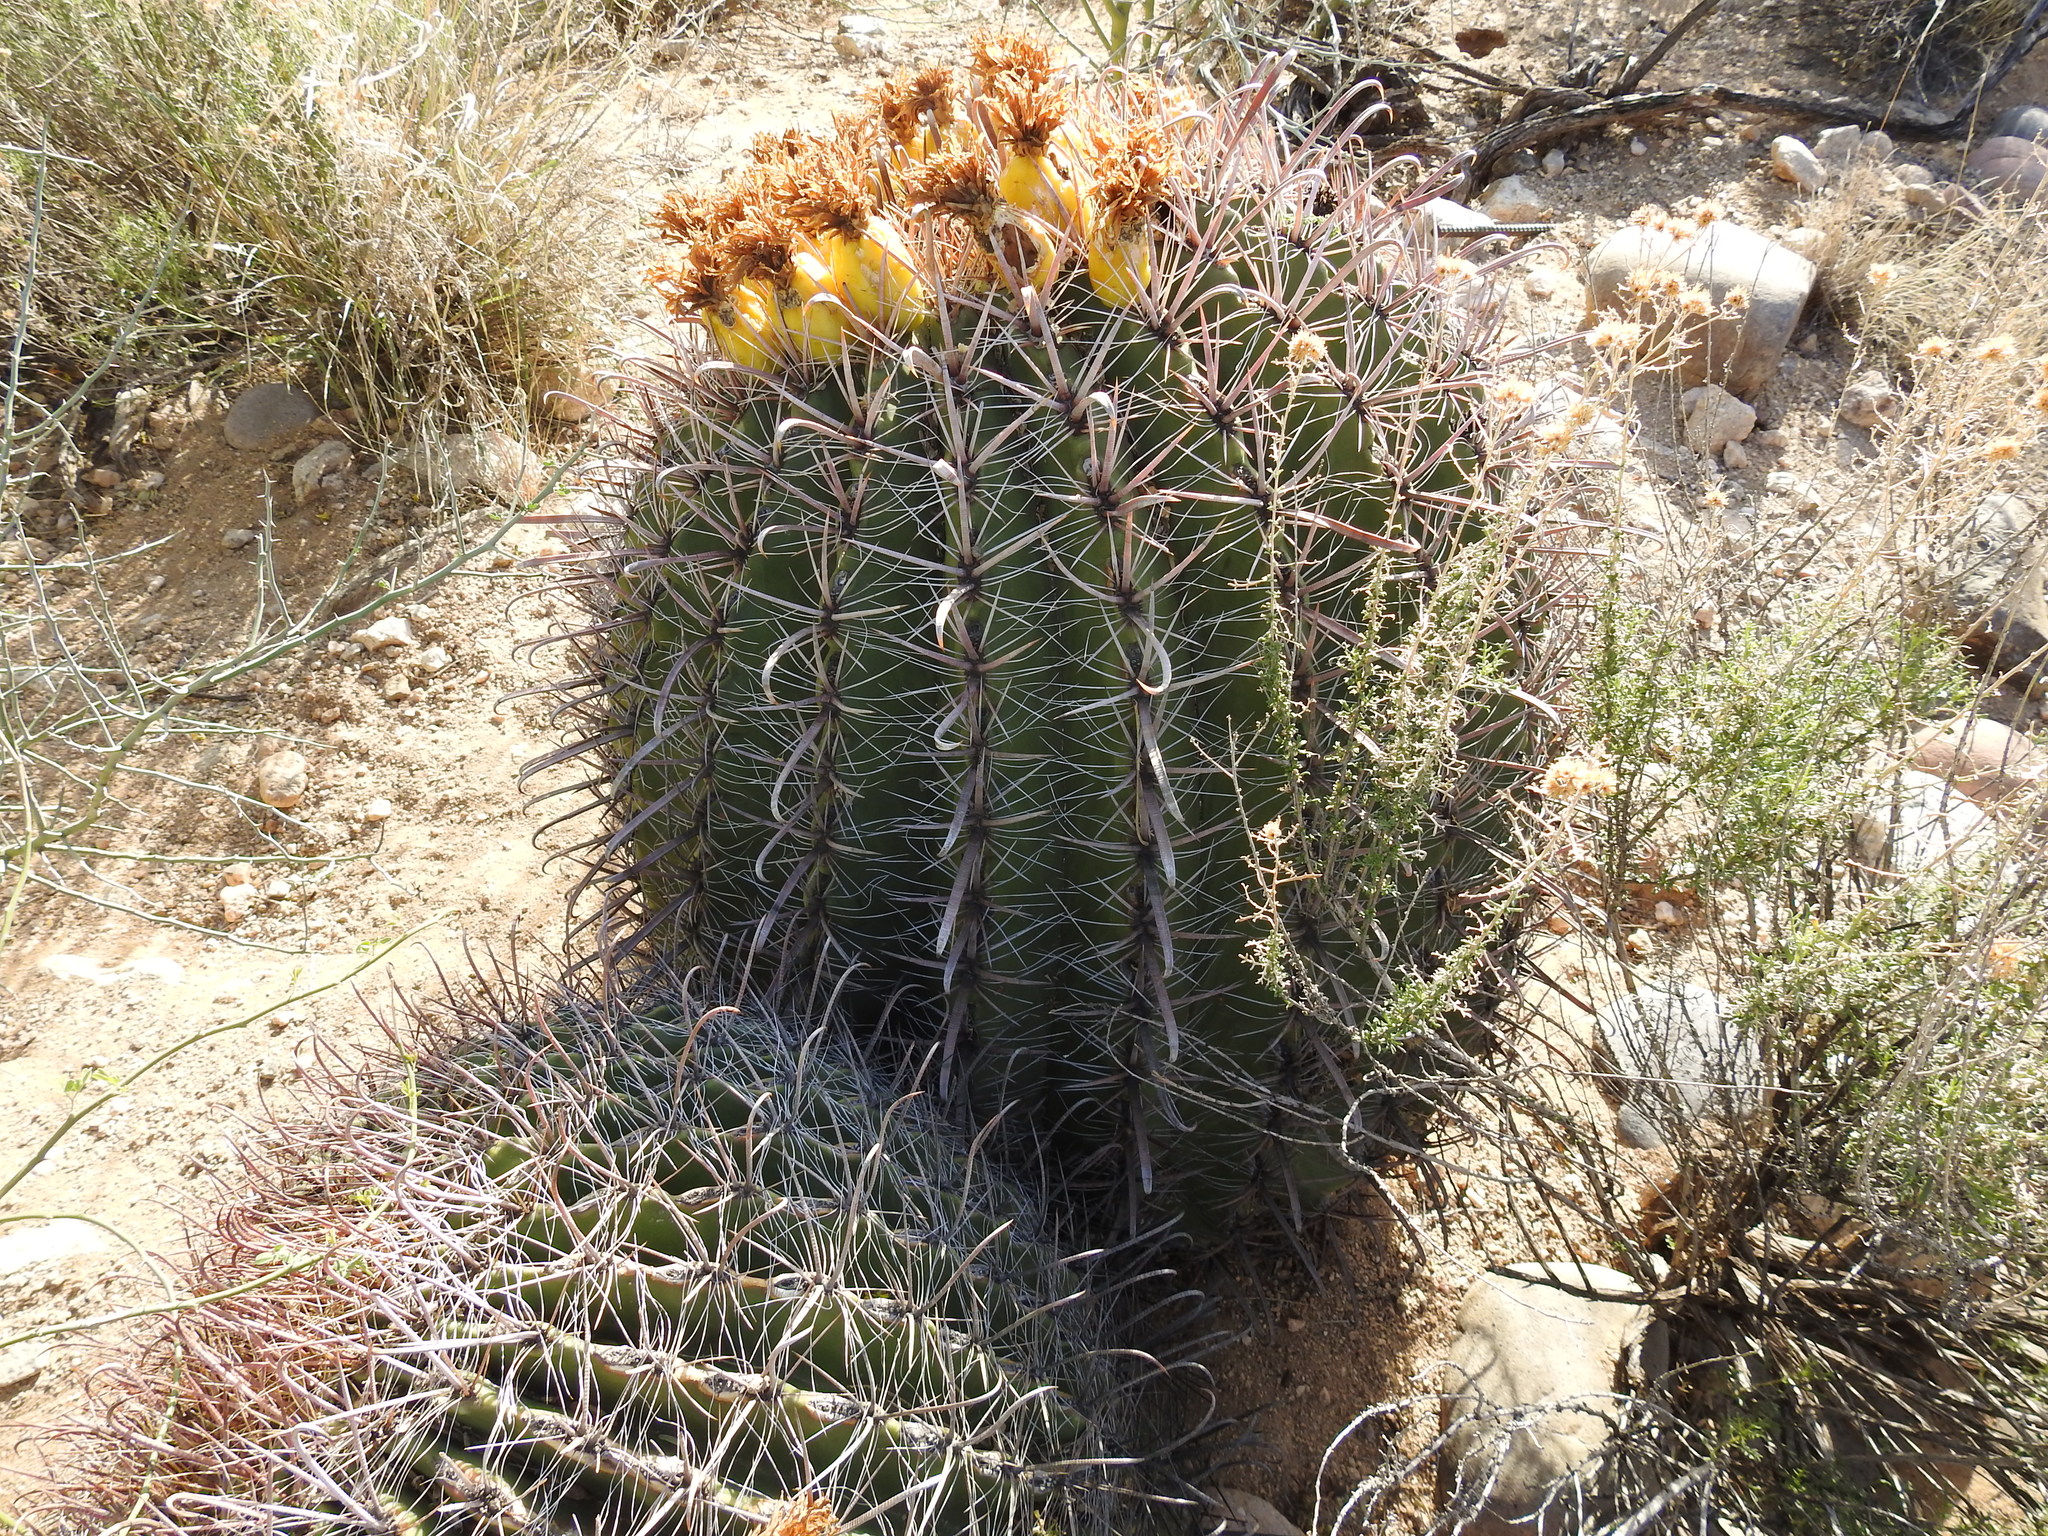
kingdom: Plantae
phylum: Tracheophyta
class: Magnoliopsida
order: Caryophyllales
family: Cactaceae
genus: Ferocactus
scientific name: Ferocactus wislizeni
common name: Candy barrel cactus
